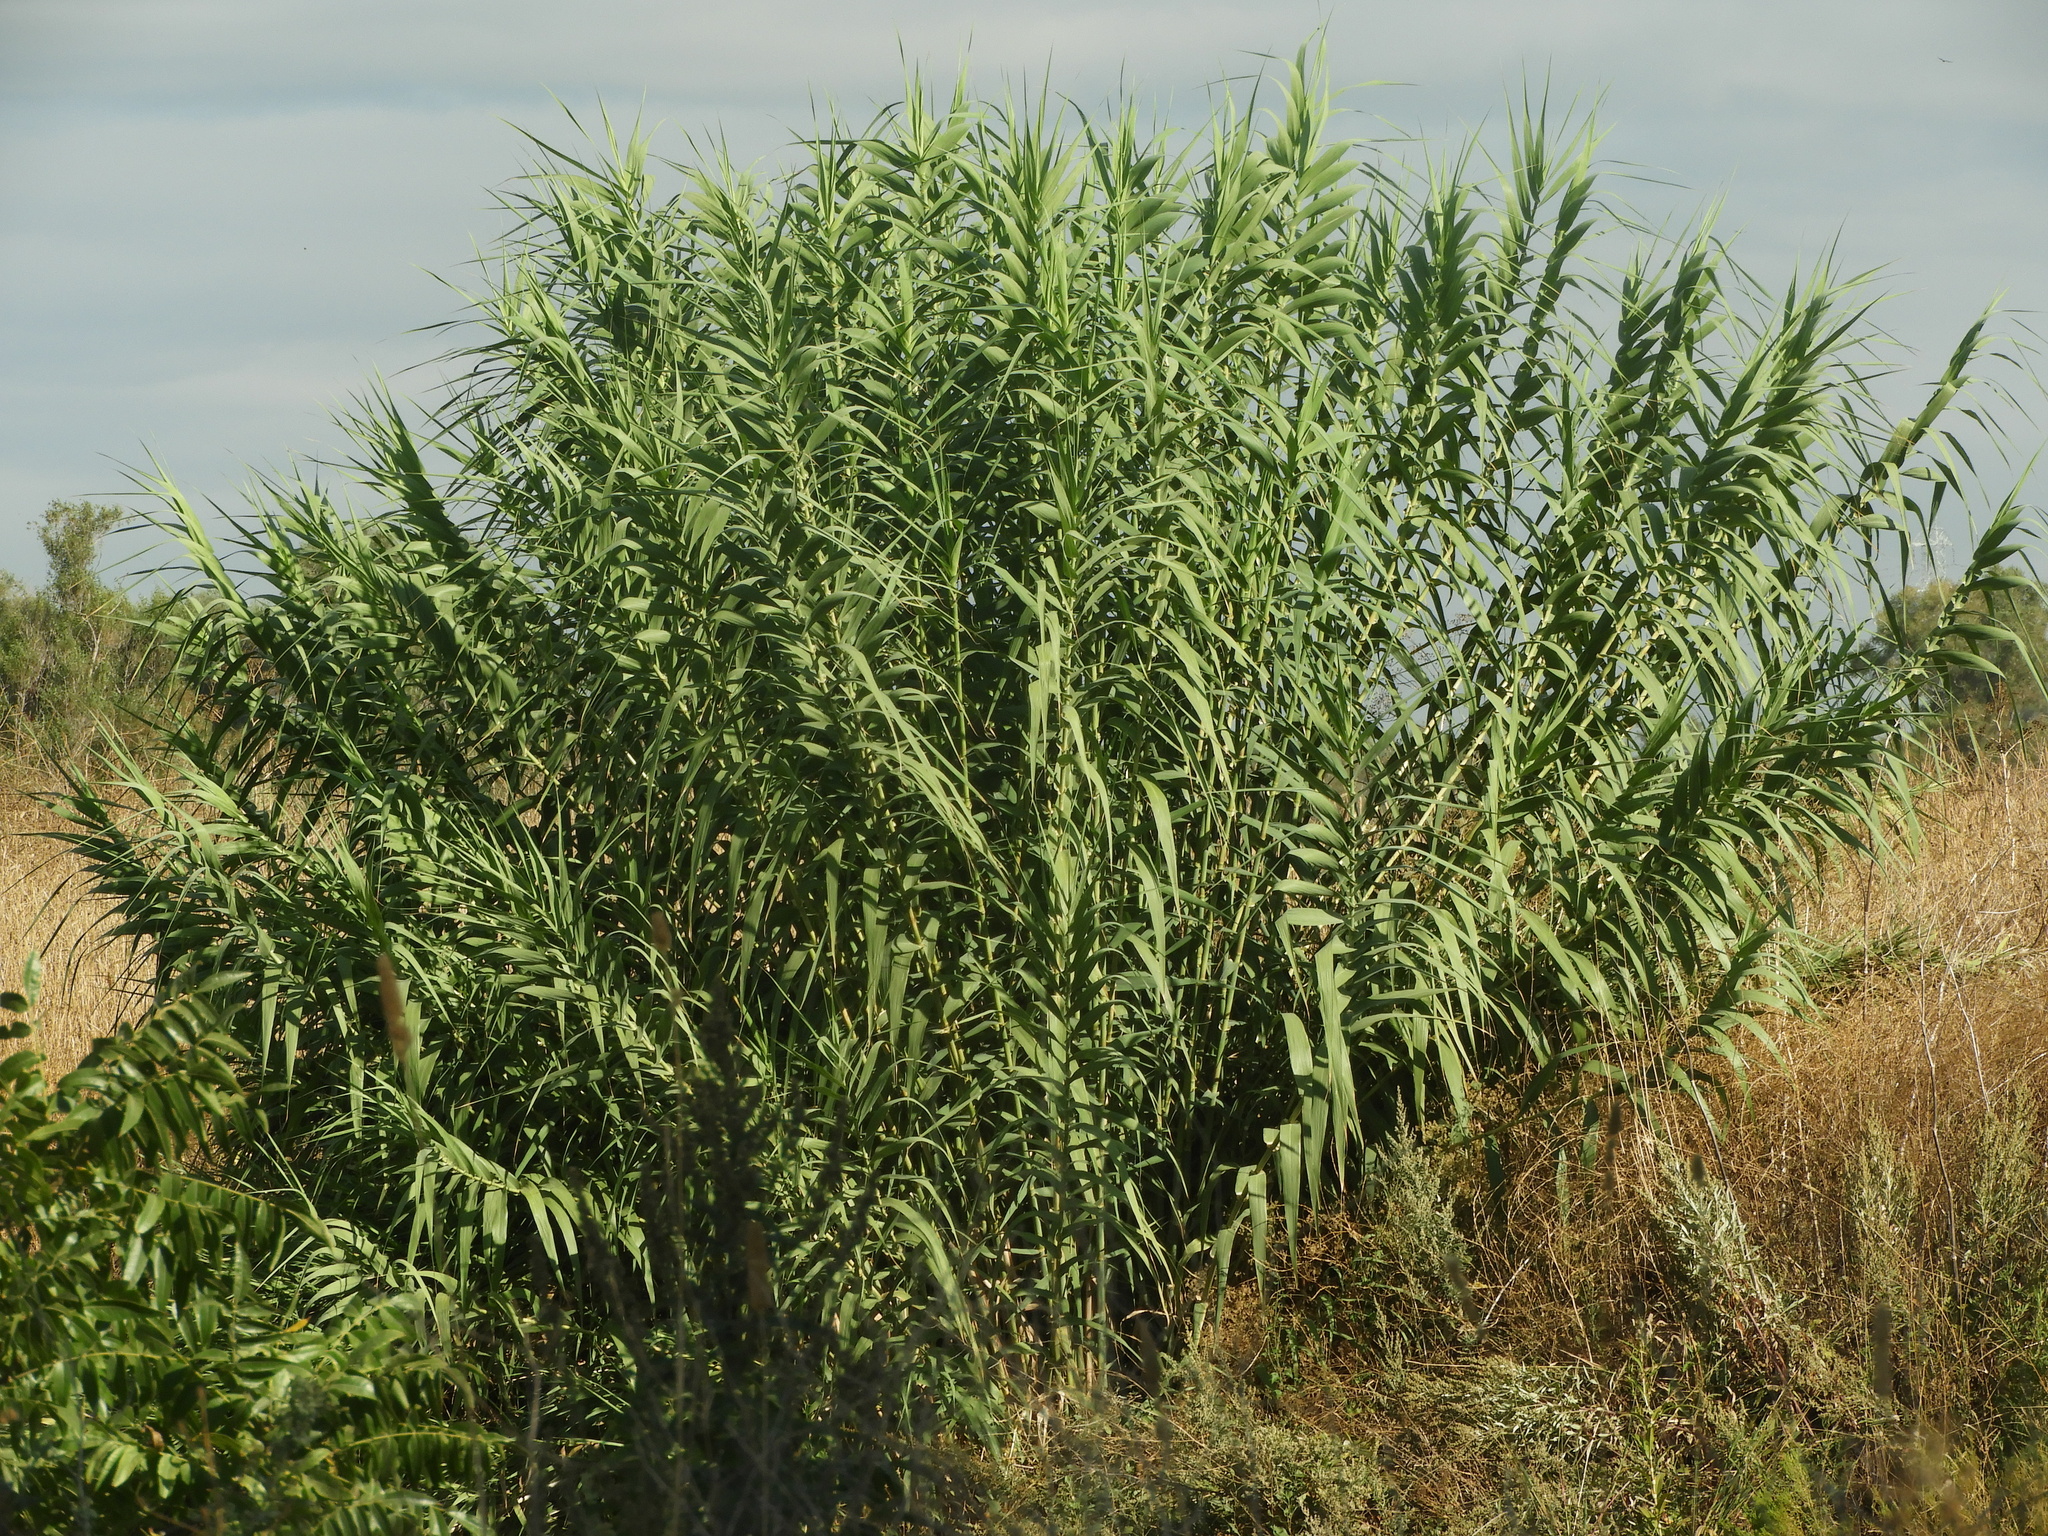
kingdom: Plantae
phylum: Tracheophyta
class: Liliopsida
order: Poales
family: Poaceae
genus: Arundo
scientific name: Arundo donax
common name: Giant reed
